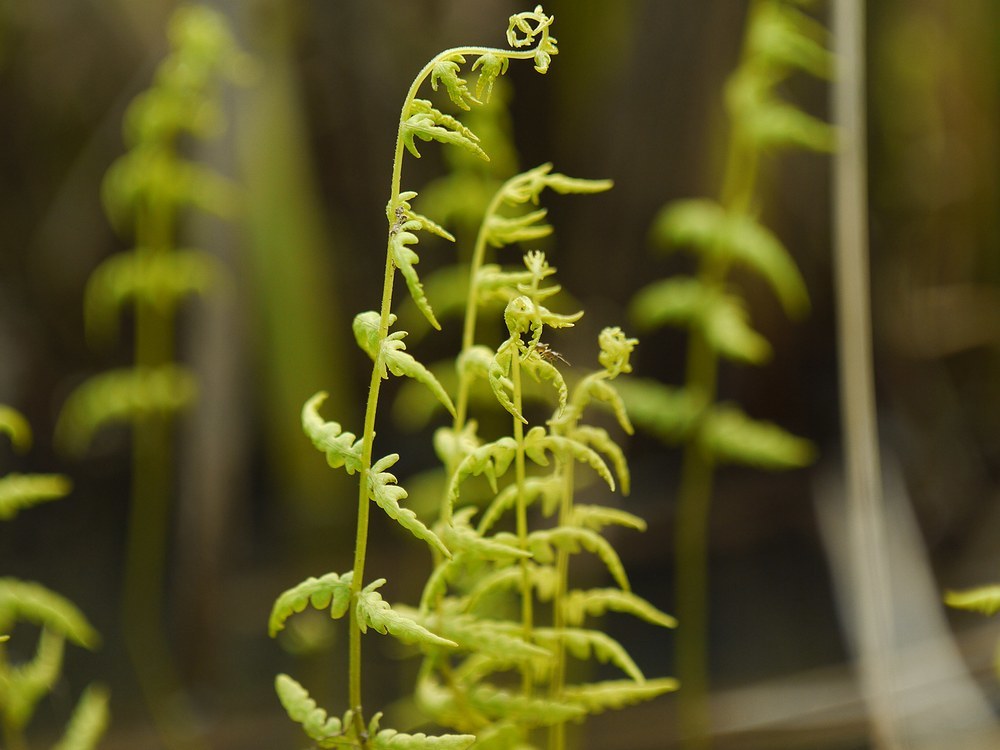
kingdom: Plantae
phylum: Tracheophyta
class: Polypodiopsida
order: Polypodiales
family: Thelypteridaceae
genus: Thelypteris
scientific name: Thelypteris palustris
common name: Marsh fern
